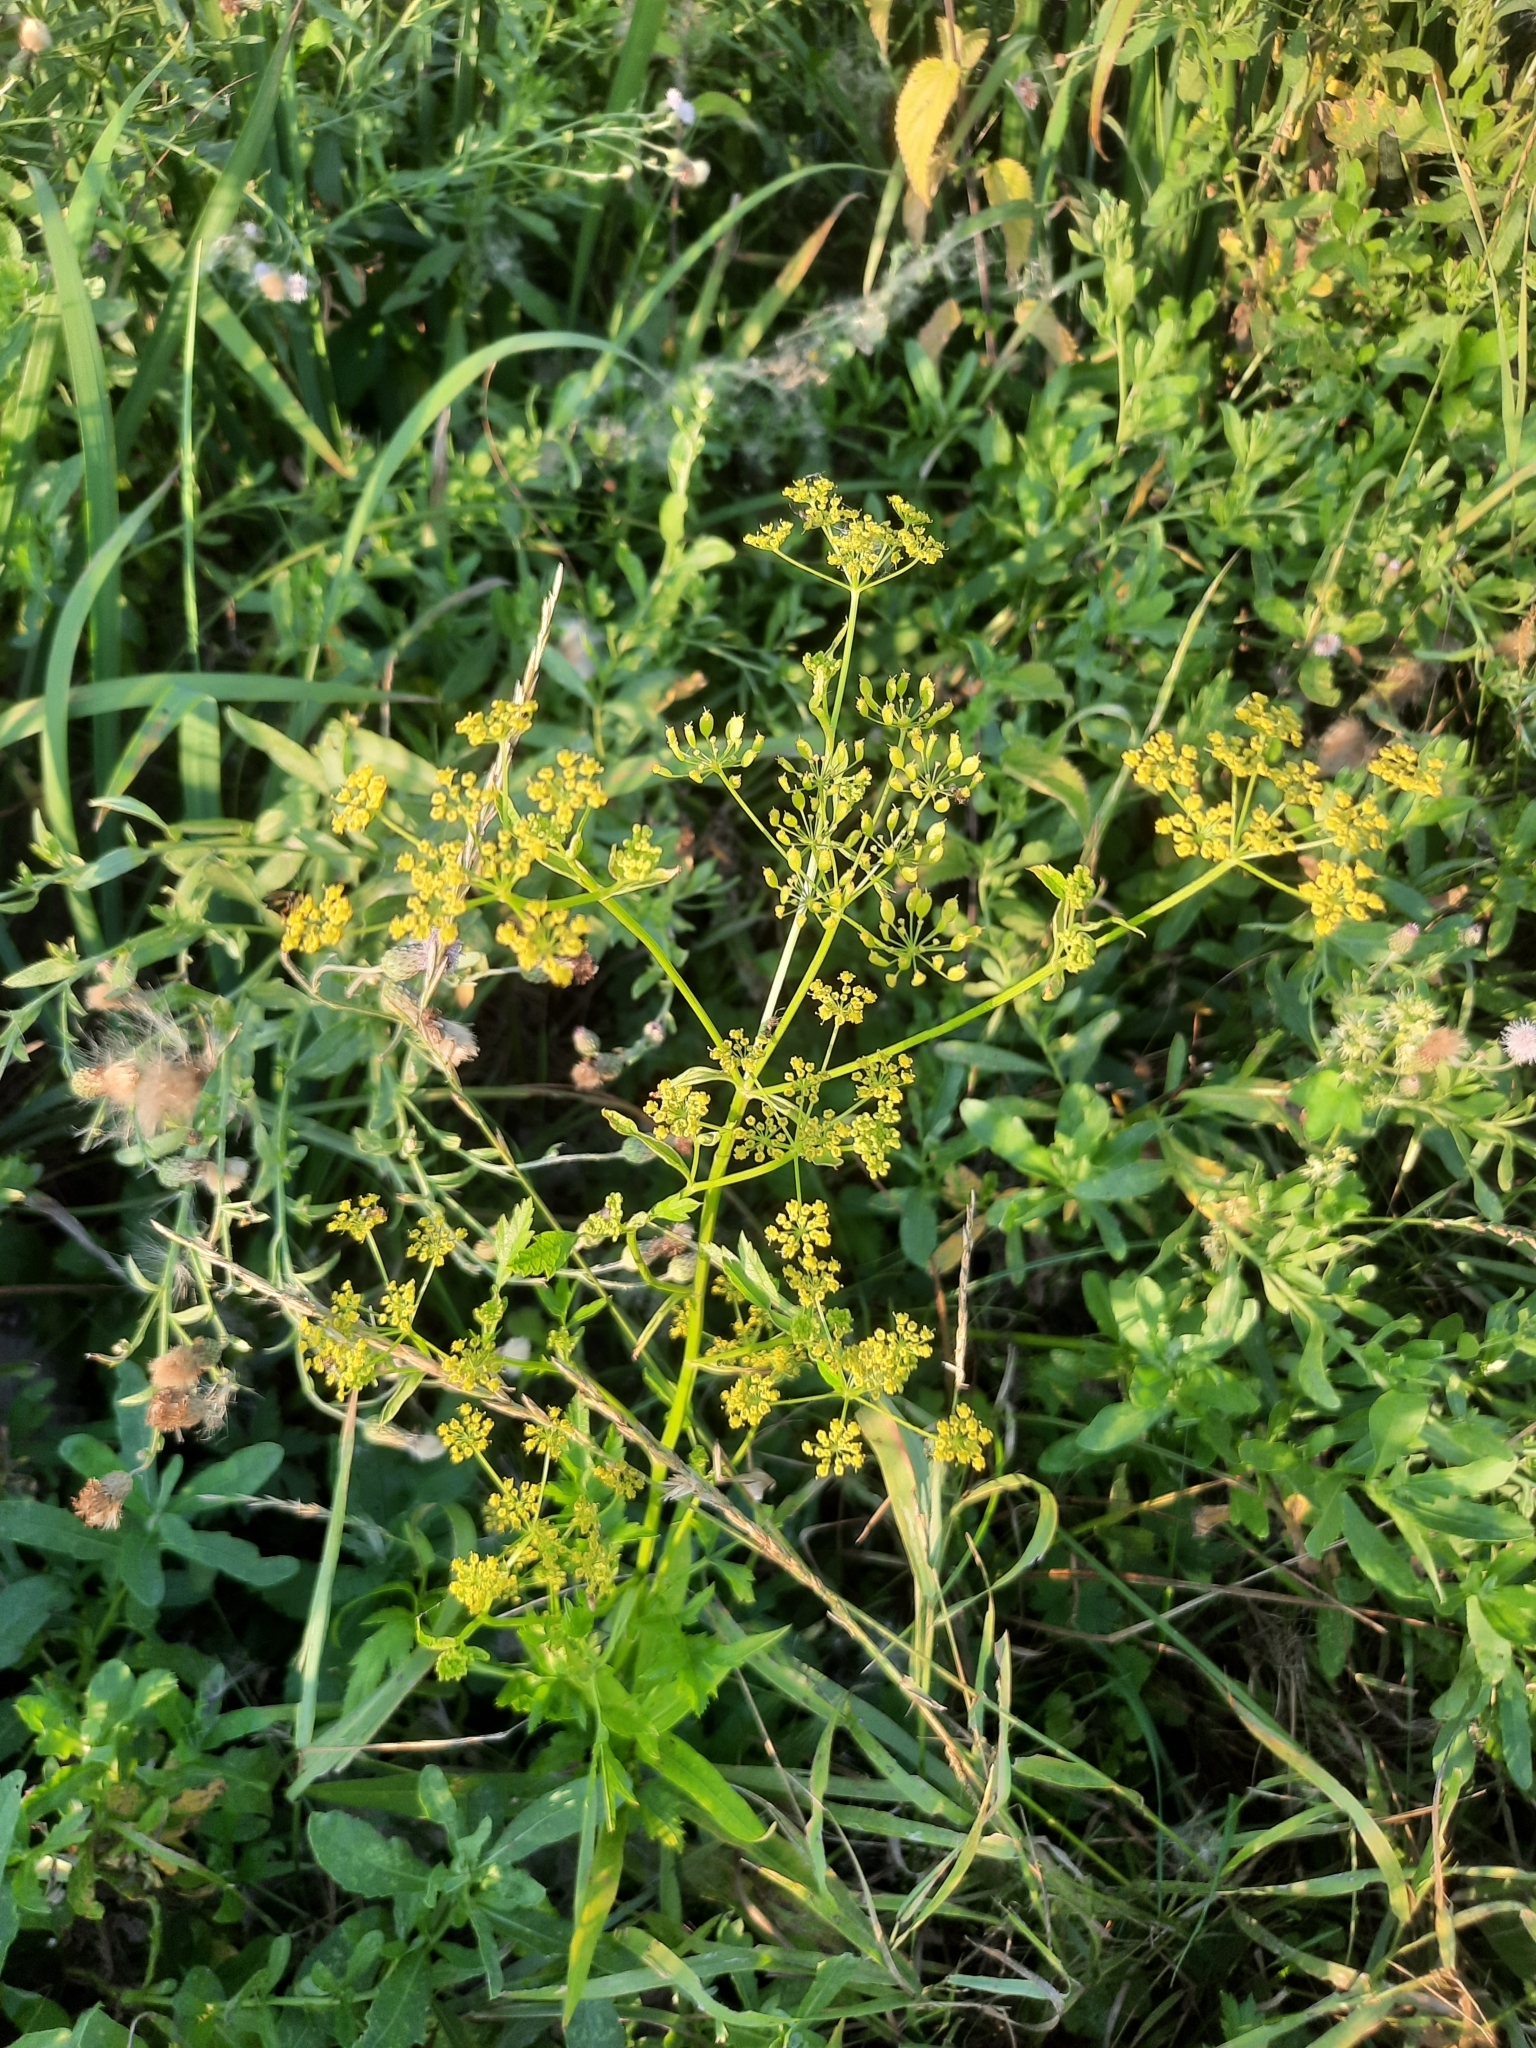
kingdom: Plantae
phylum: Tracheophyta
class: Magnoliopsida
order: Apiales
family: Apiaceae
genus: Pastinaca
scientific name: Pastinaca sativa
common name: Wild parsnip
